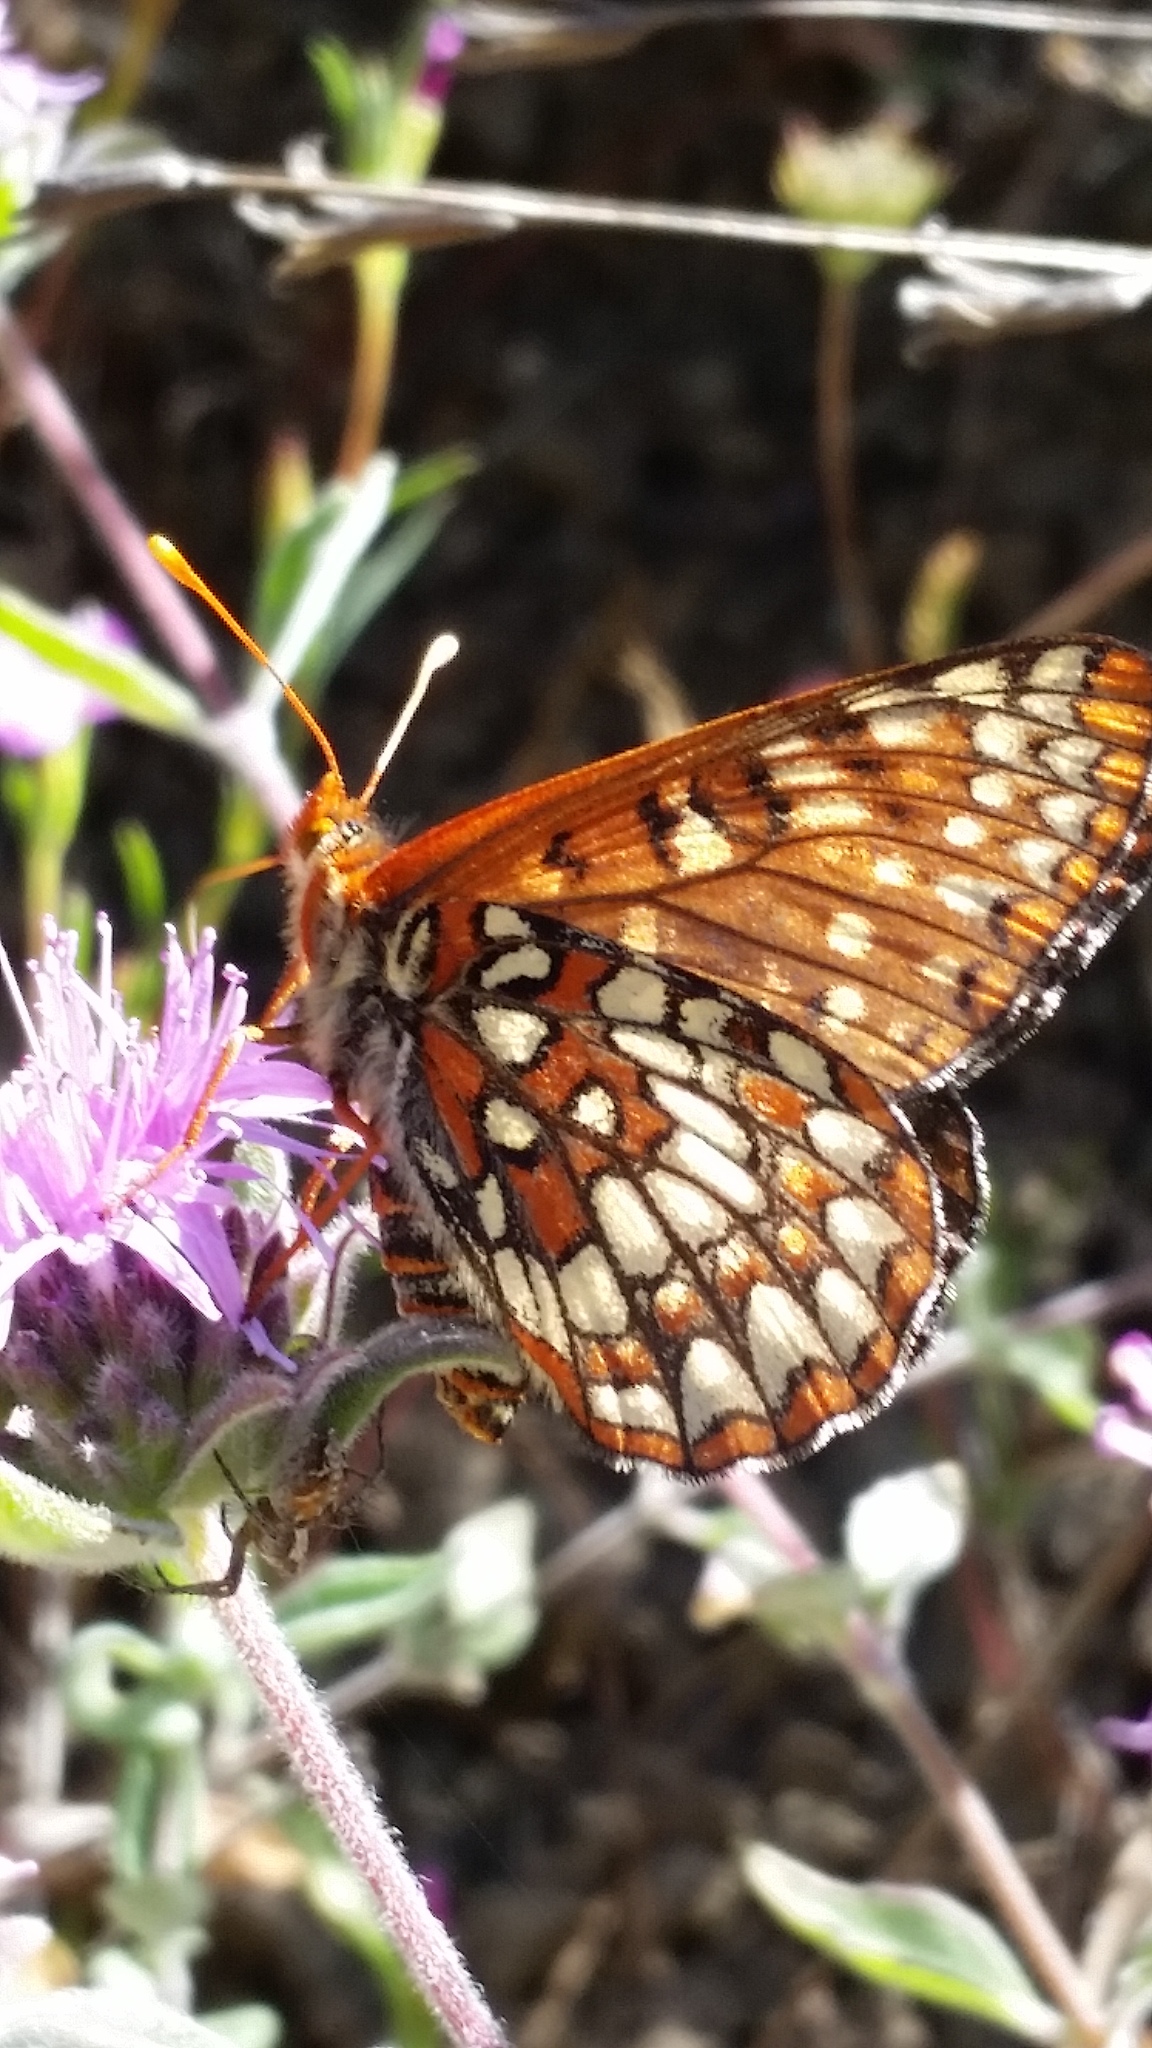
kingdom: Animalia
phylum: Arthropoda
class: Insecta
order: Lepidoptera
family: Nymphalidae
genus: Occidryas
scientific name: Occidryas chalcedona
